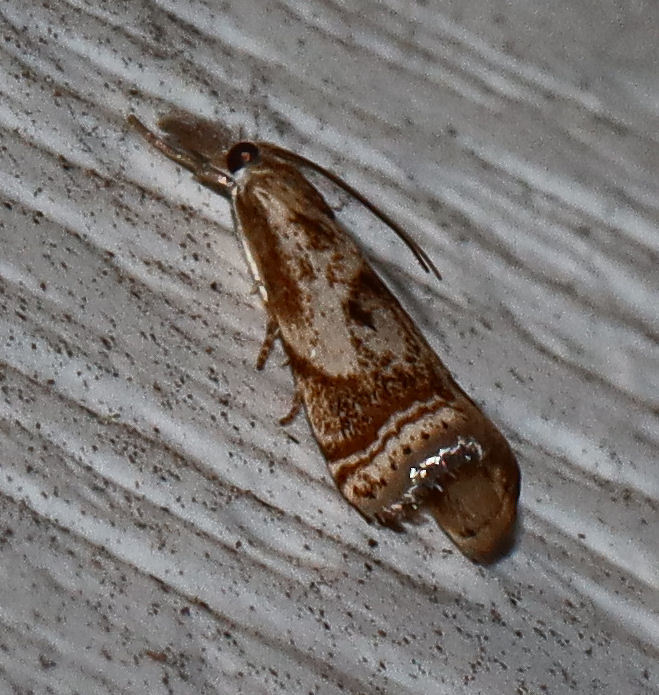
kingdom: Animalia
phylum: Arthropoda
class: Insecta
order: Lepidoptera
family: Crambidae
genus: Microcrambus
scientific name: Microcrambus elegans
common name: Elegant grass-veneer
